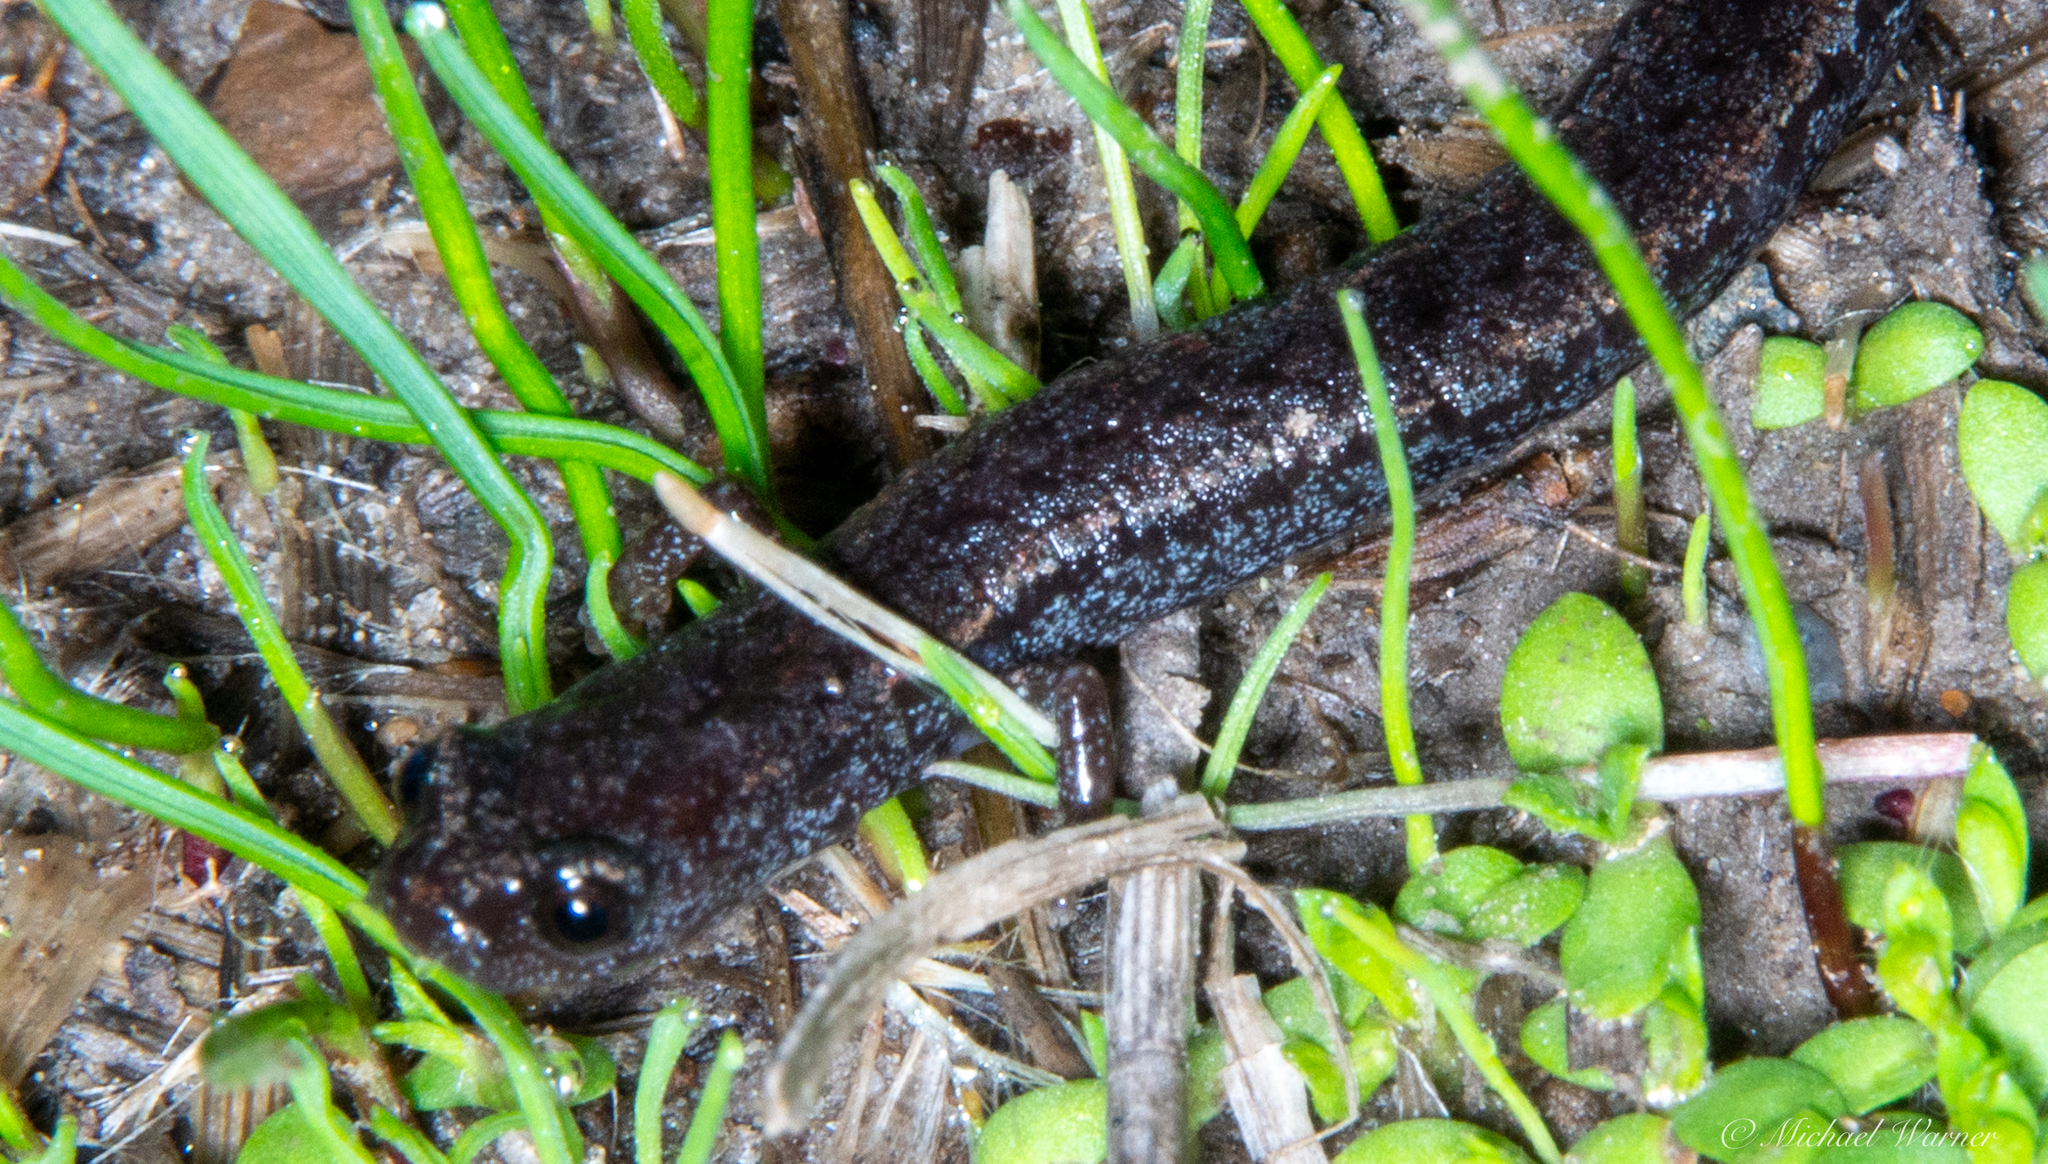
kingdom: Animalia
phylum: Chordata
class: Amphibia
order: Caudata
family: Plethodontidae
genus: Batrachoseps
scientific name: Batrachoseps attenuatus
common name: California slender salamander
